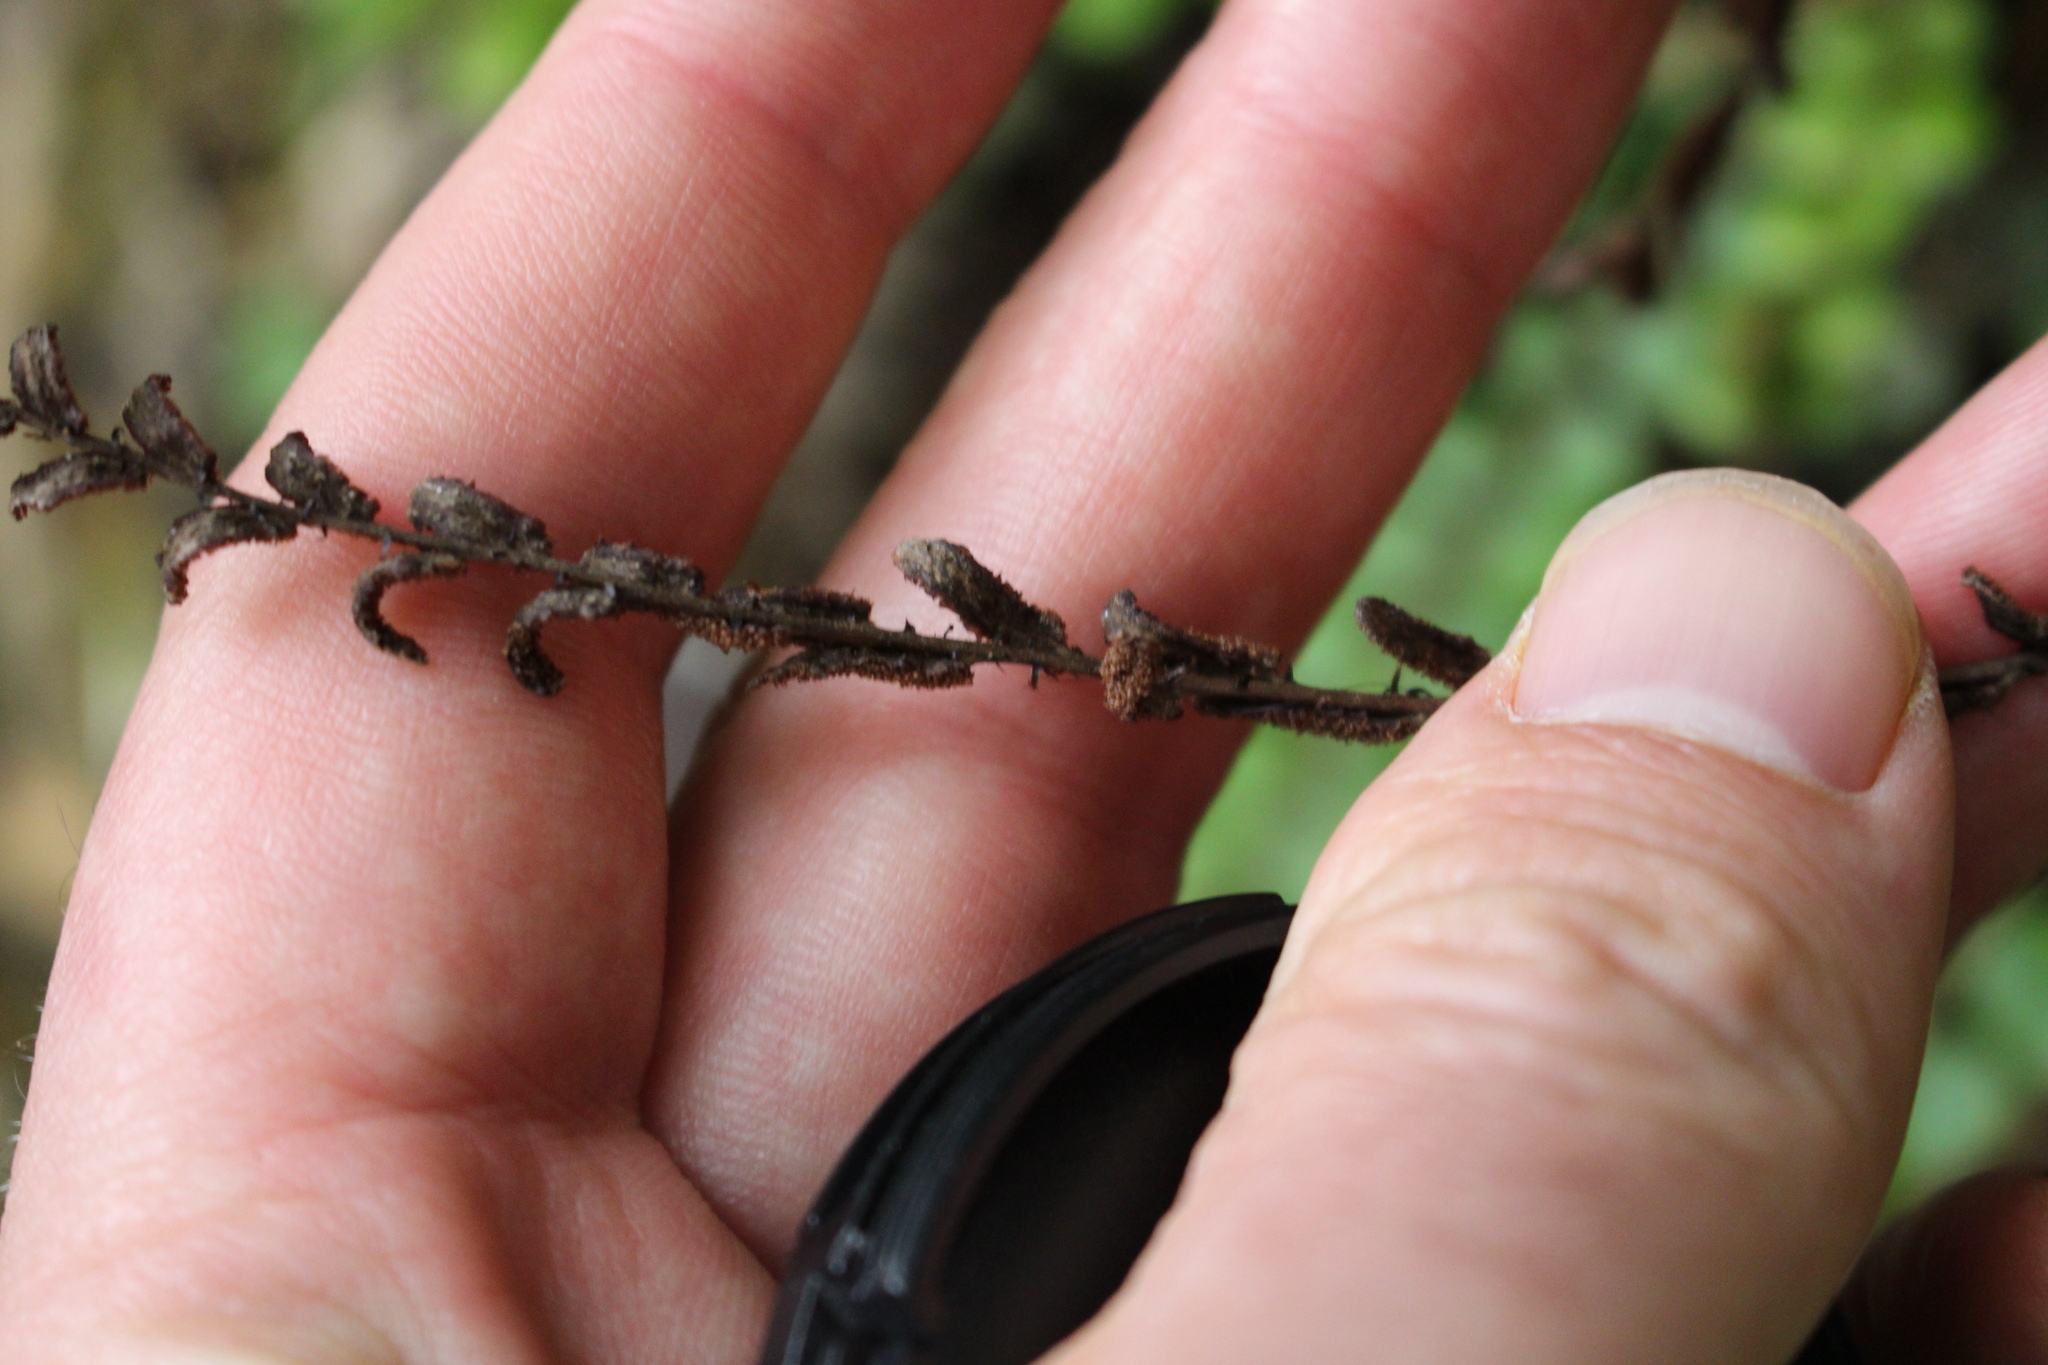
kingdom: Plantae
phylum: Tracheophyta
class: Polypodiopsida
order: Polypodiales
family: Blechnaceae
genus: Cranfillia
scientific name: Cranfillia fluviatilis
